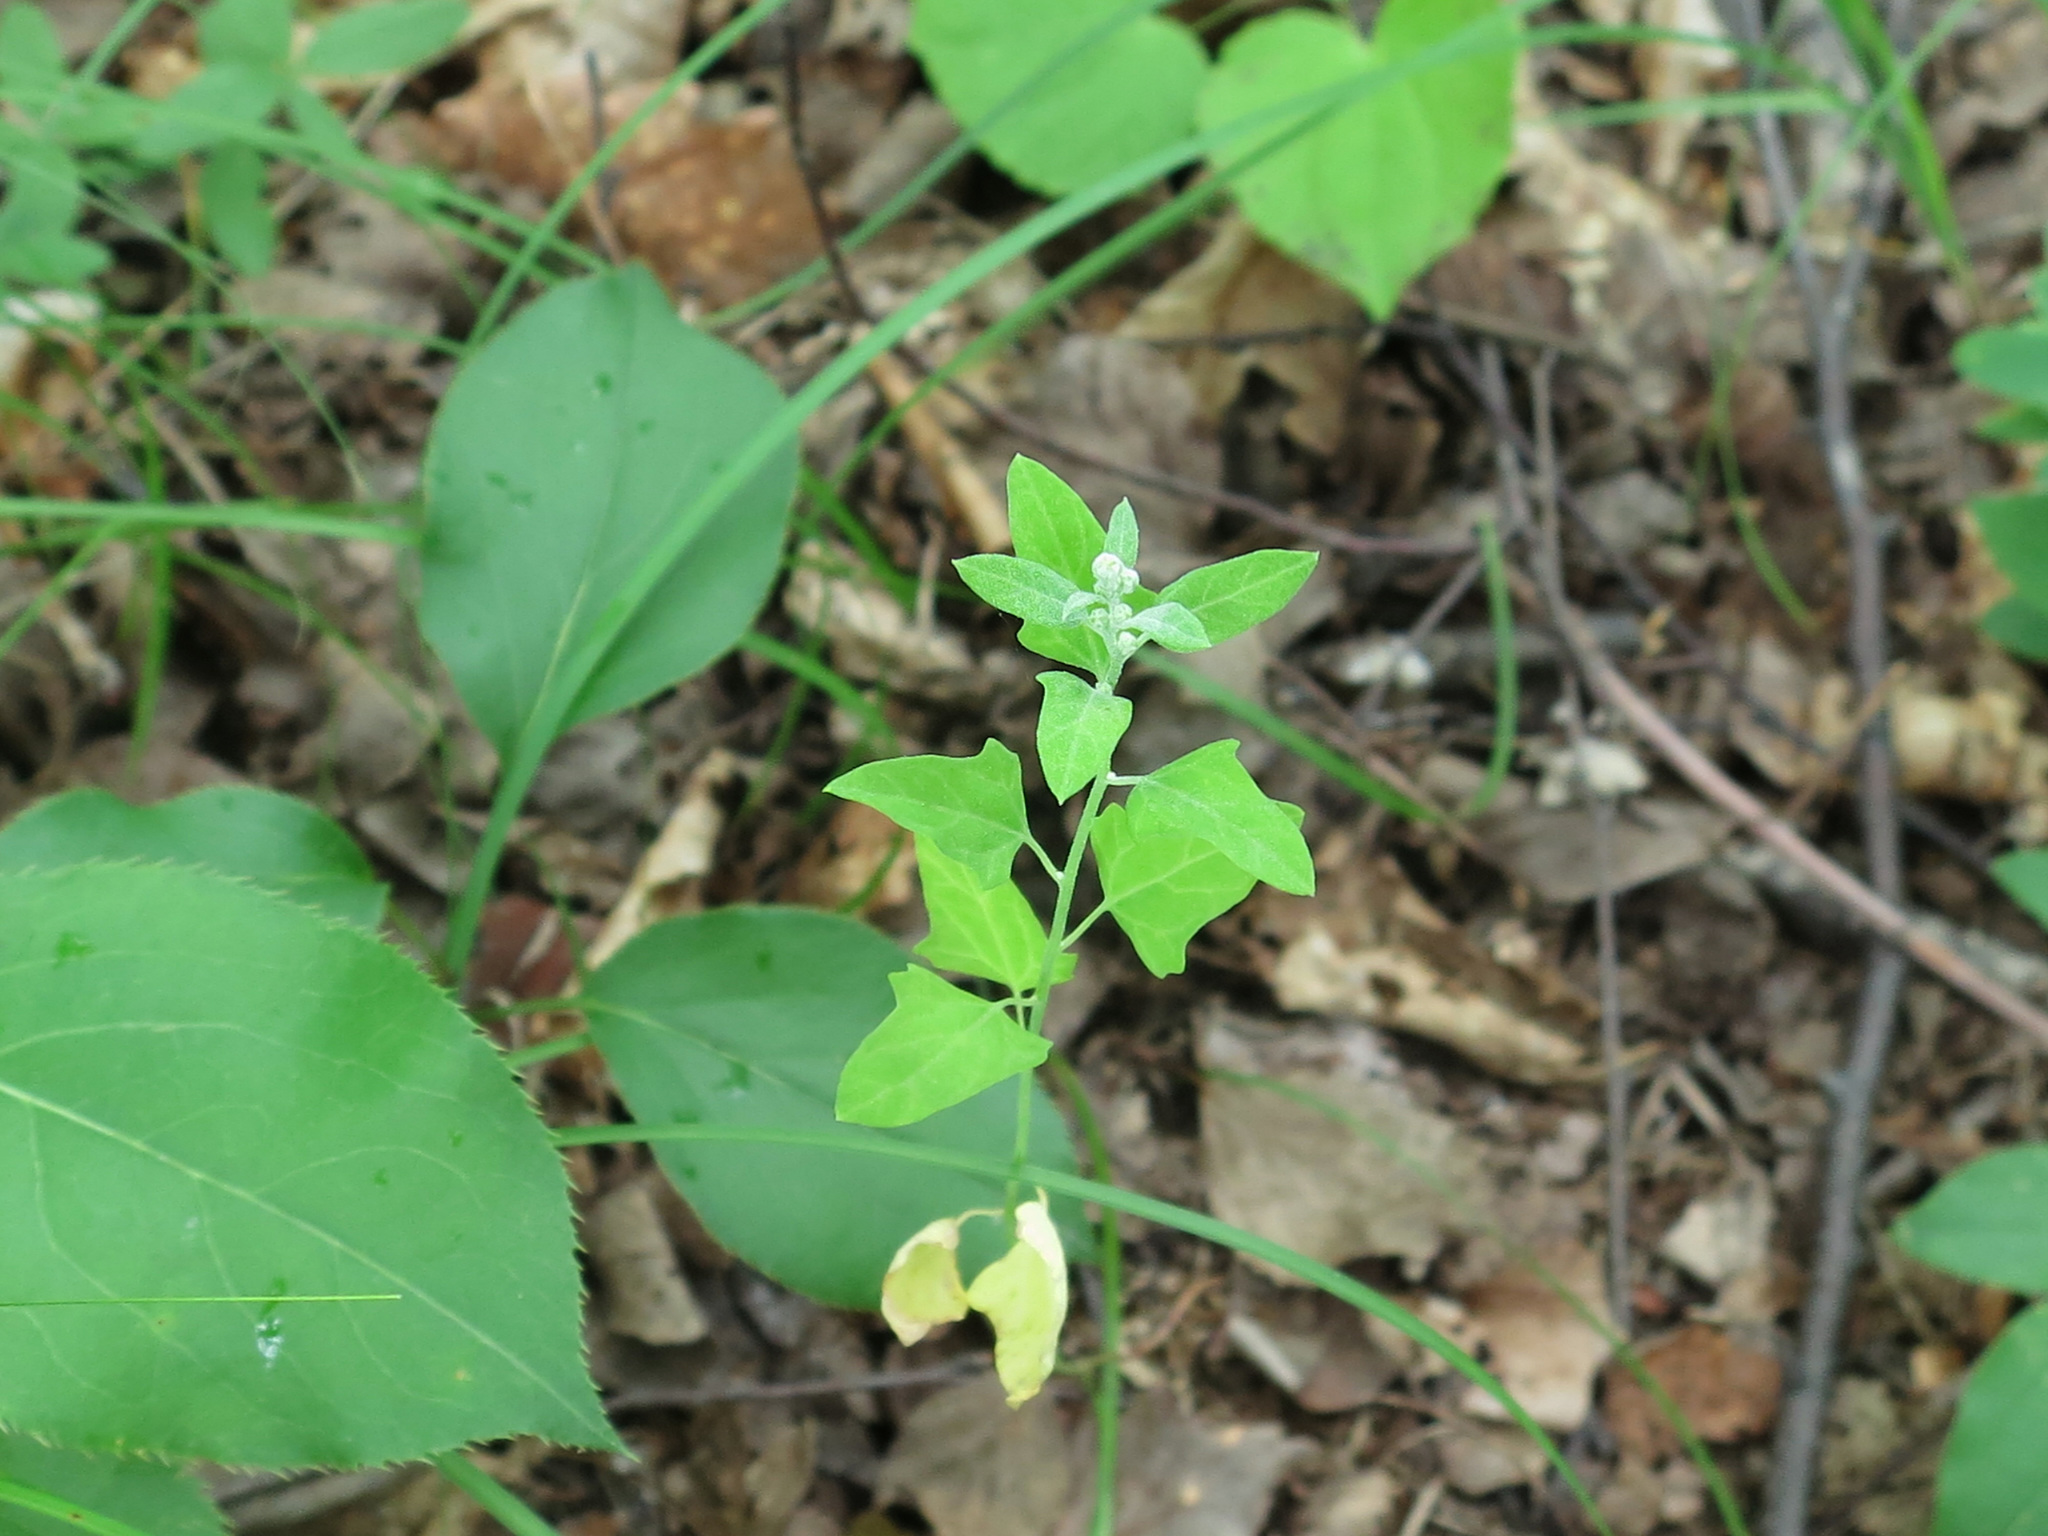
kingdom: Plantae
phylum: Tracheophyta
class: Magnoliopsida
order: Caryophyllales
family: Amaranthaceae
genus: Chenopodium
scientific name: Chenopodium album
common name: Fat-hen
